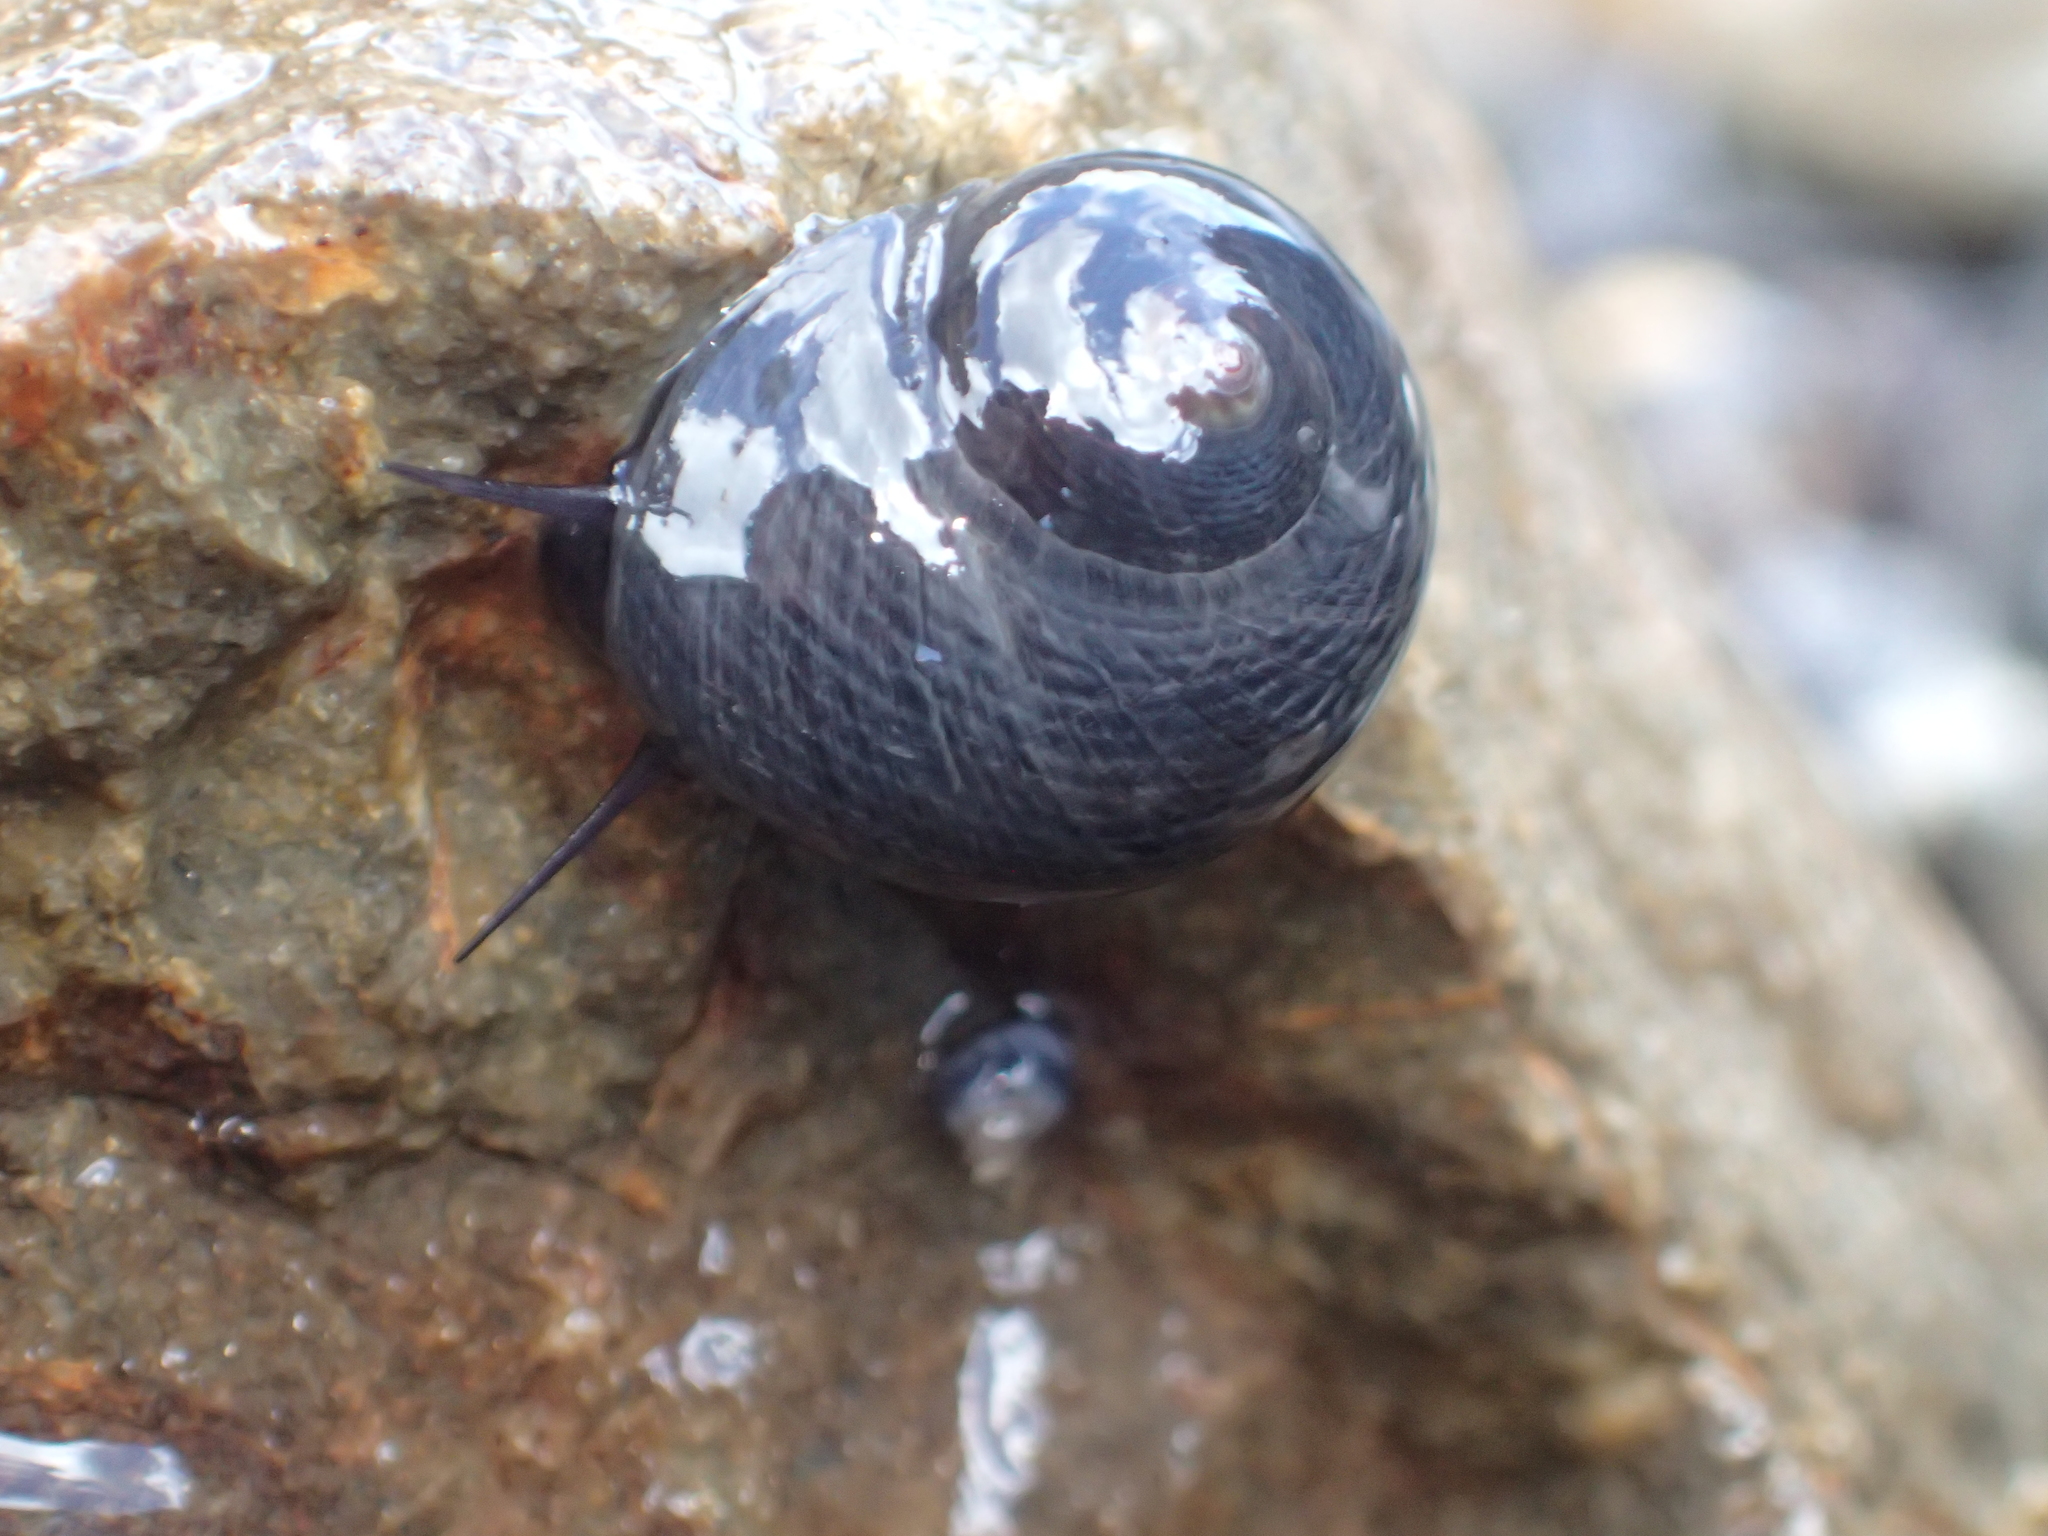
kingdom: Animalia
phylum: Mollusca
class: Gastropoda
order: Trochida
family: Trochidae
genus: Diloma
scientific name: Diloma nigerrimum
